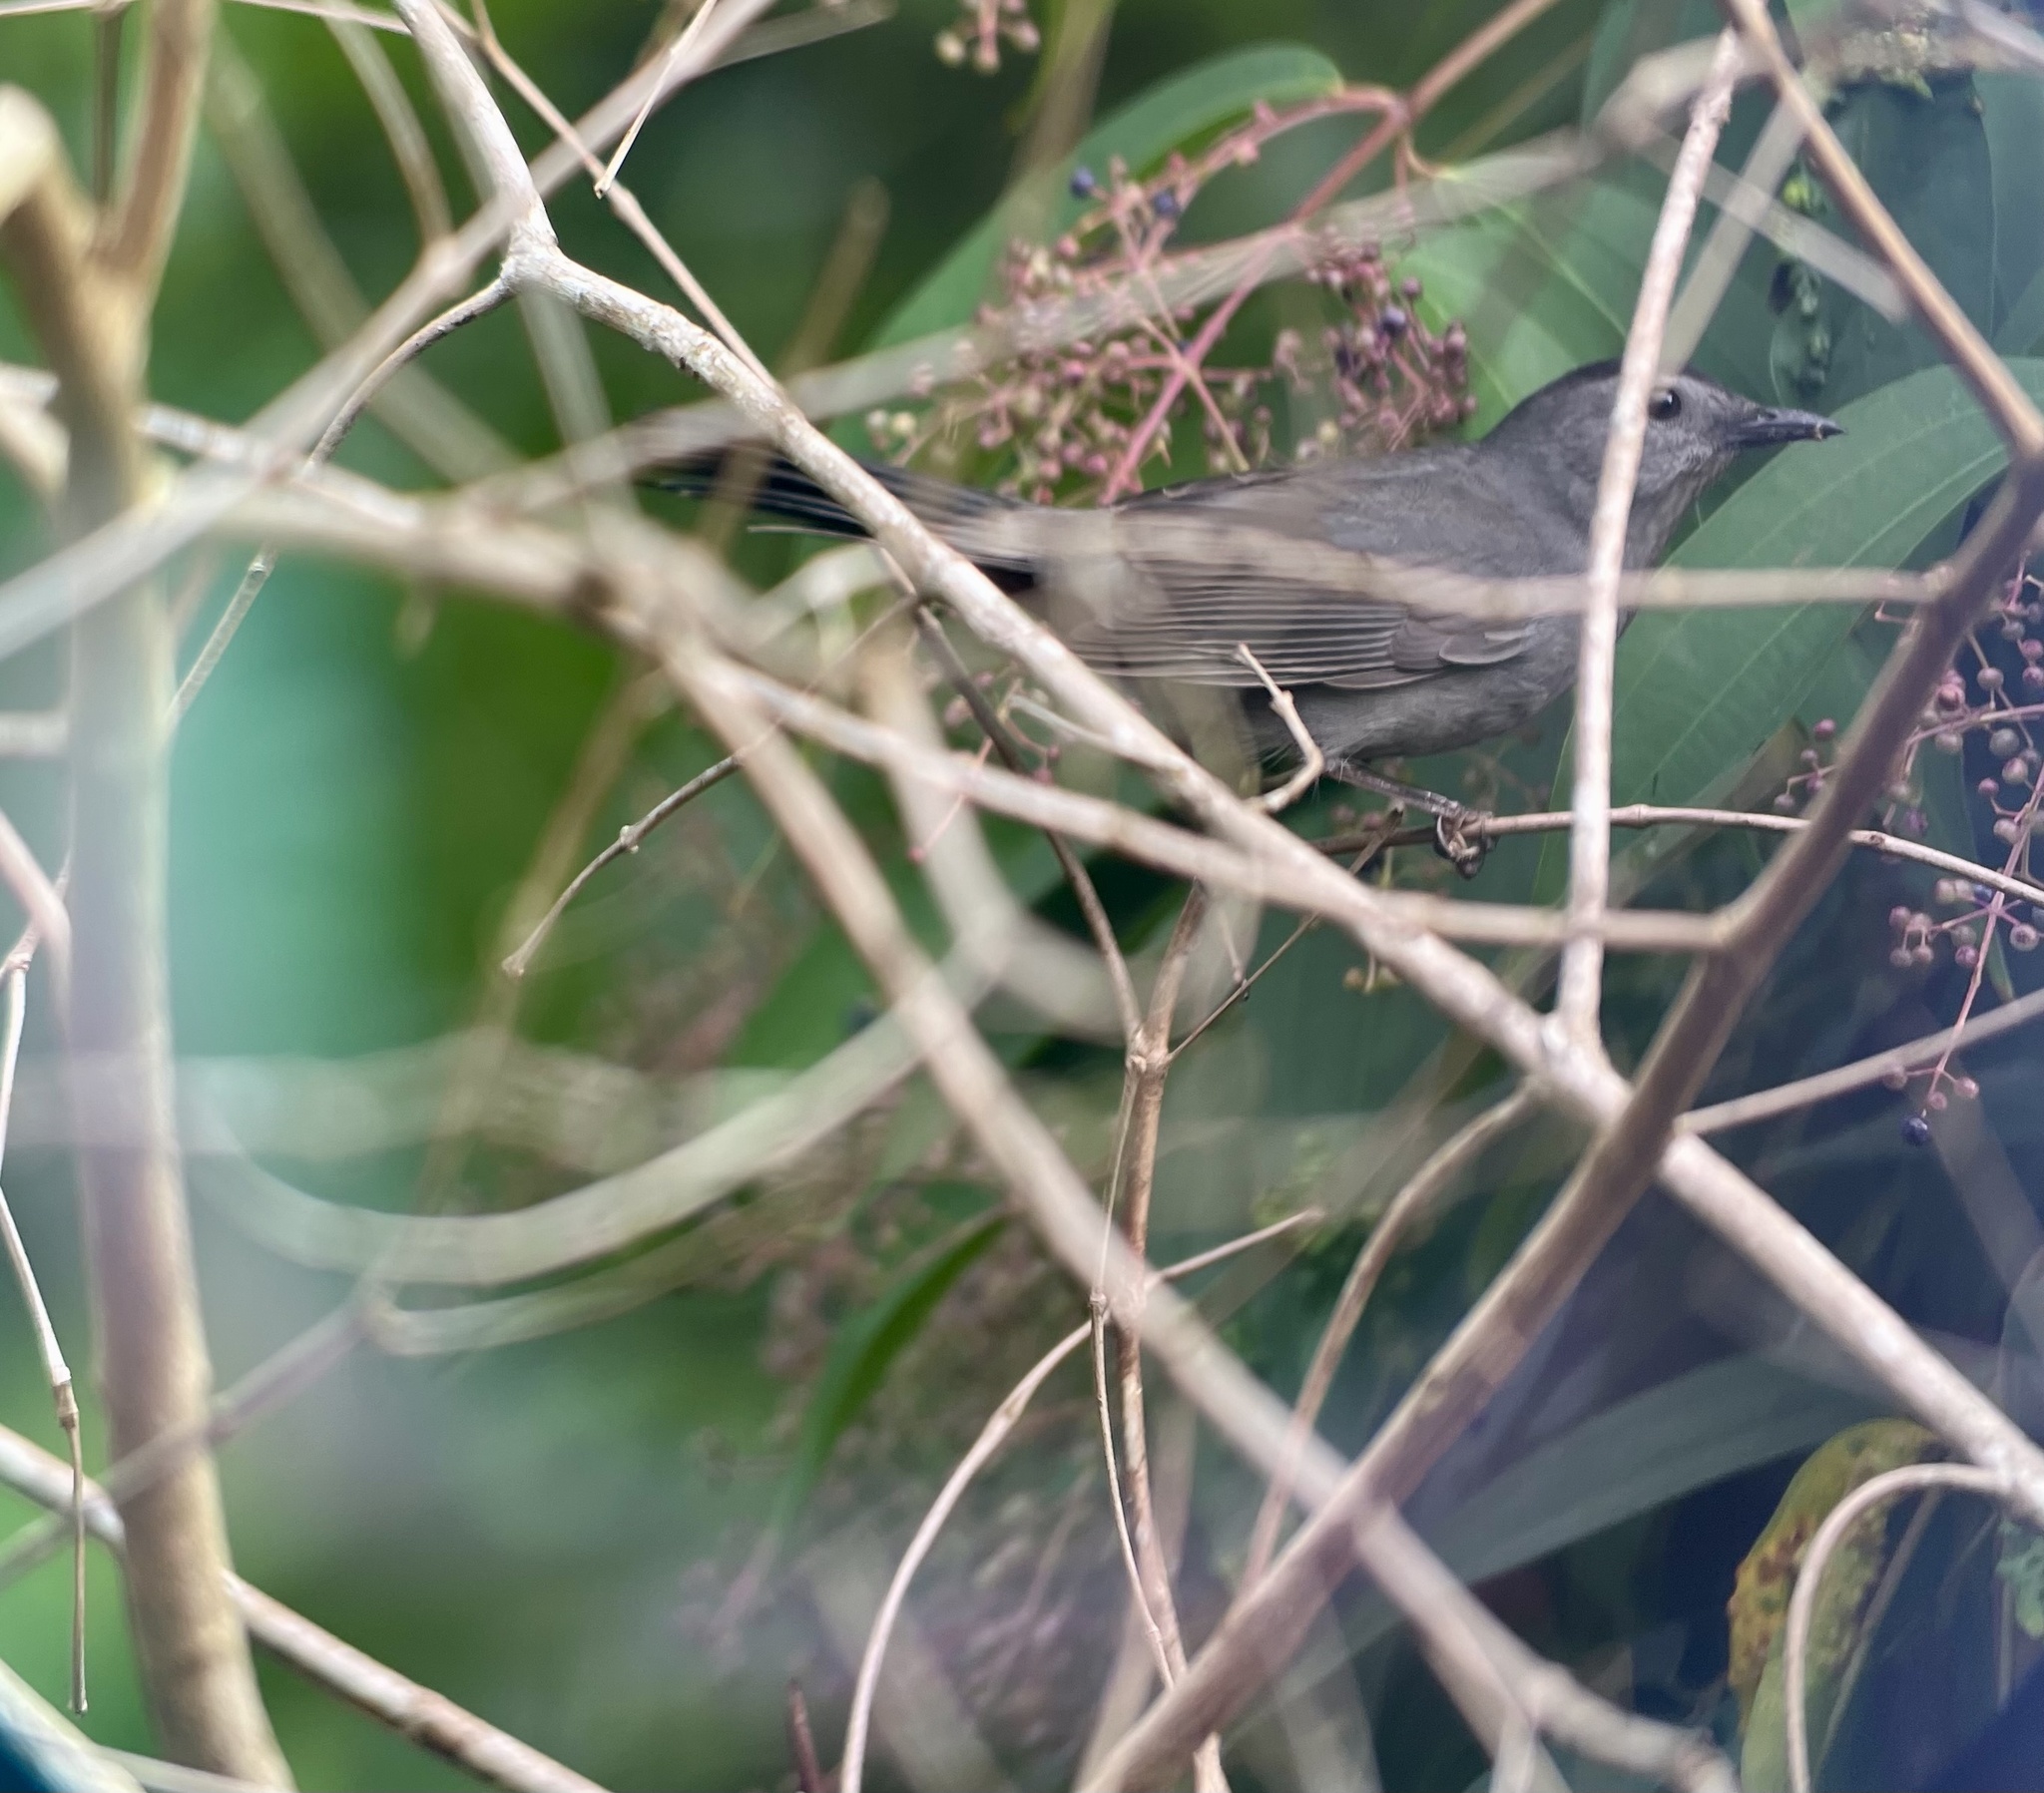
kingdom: Animalia
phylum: Chordata
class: Aves
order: Passeriformes
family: Mimidae
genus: Dumetella
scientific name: Dumetella carolinensis
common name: Gray catbird
